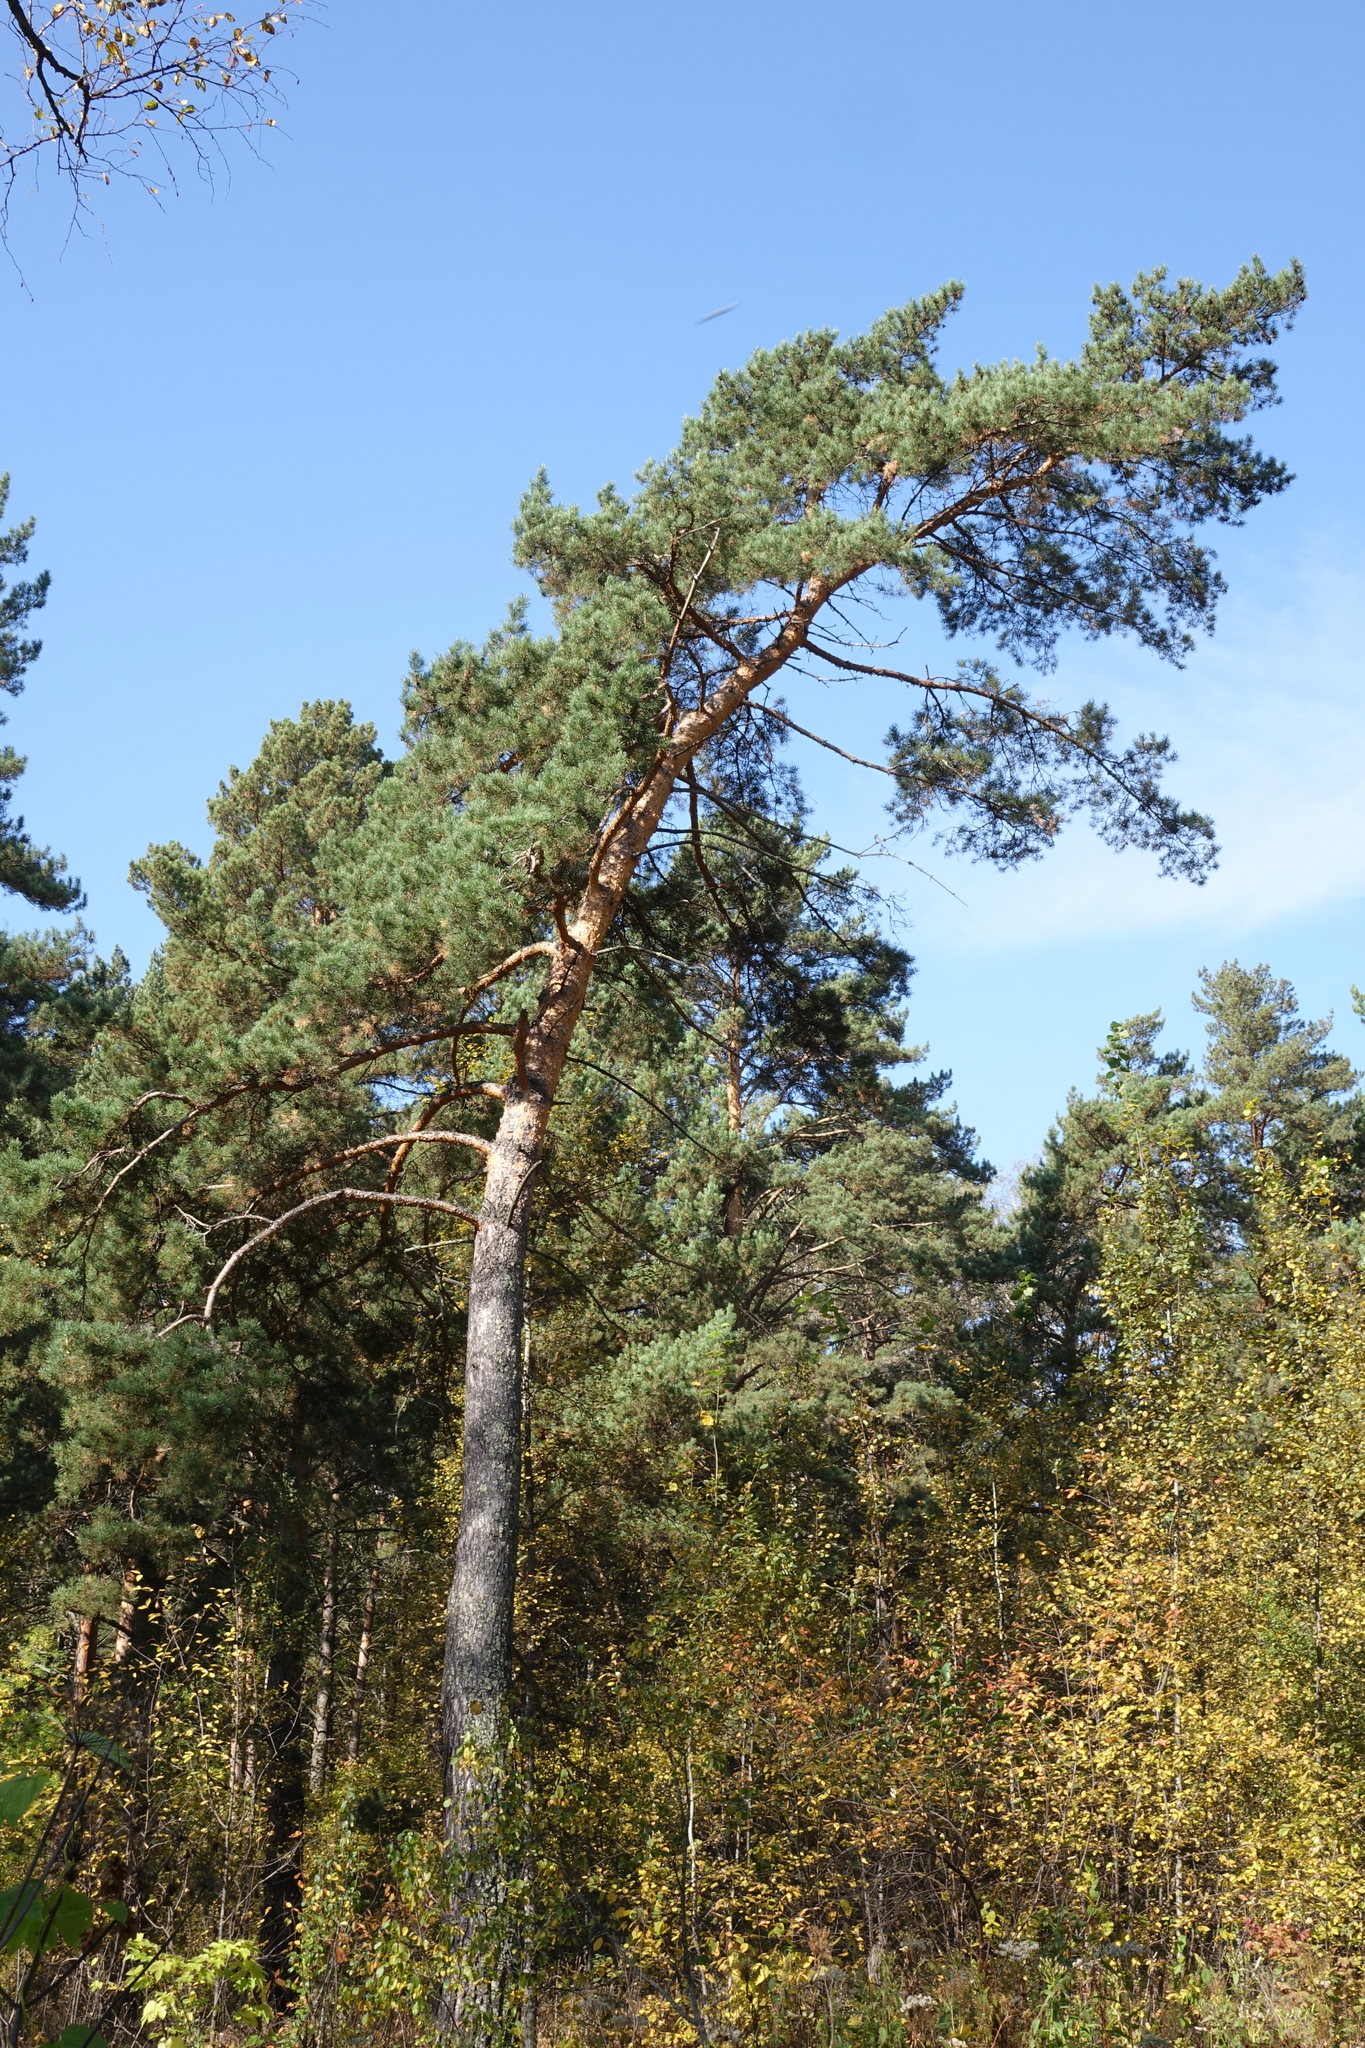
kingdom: Plantae
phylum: Tracheophyta
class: Pinopsida
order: Pinales
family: Pinaceae
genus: Pinus
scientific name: Pinus sylvestris
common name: Scots pine
